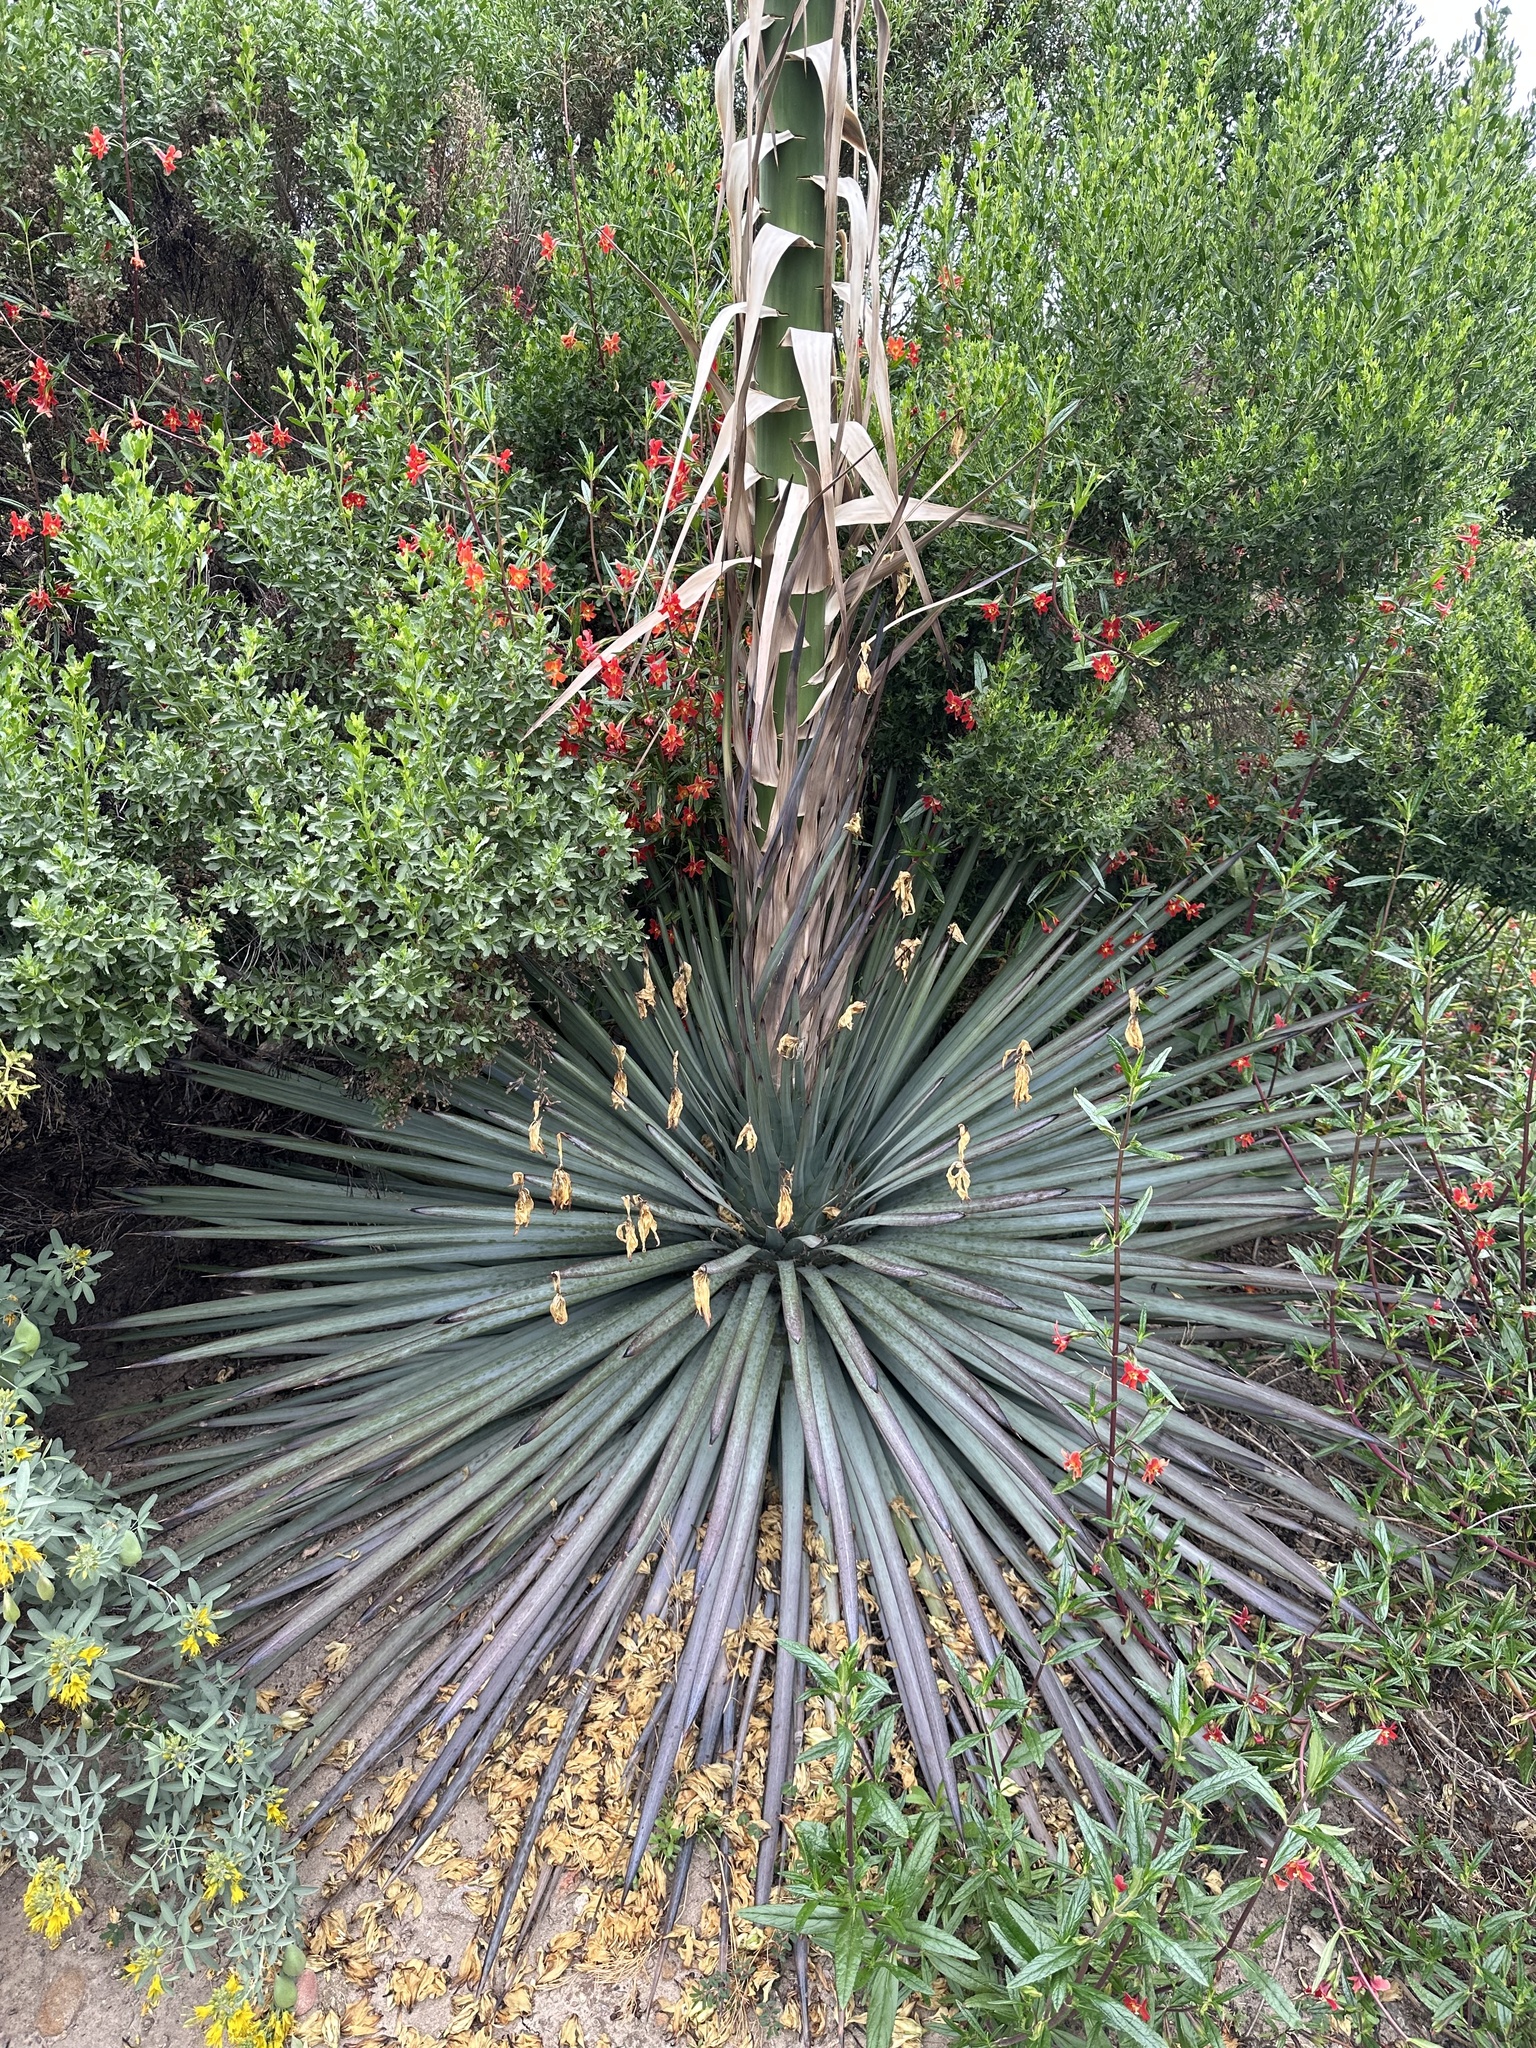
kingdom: Plantae
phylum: Tracheophyta
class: Liliopsida
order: Asparagales
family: Asparagaceae
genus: Hesperoyucca
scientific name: Hesperoyucca whipplei
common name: Our lord's-candle
